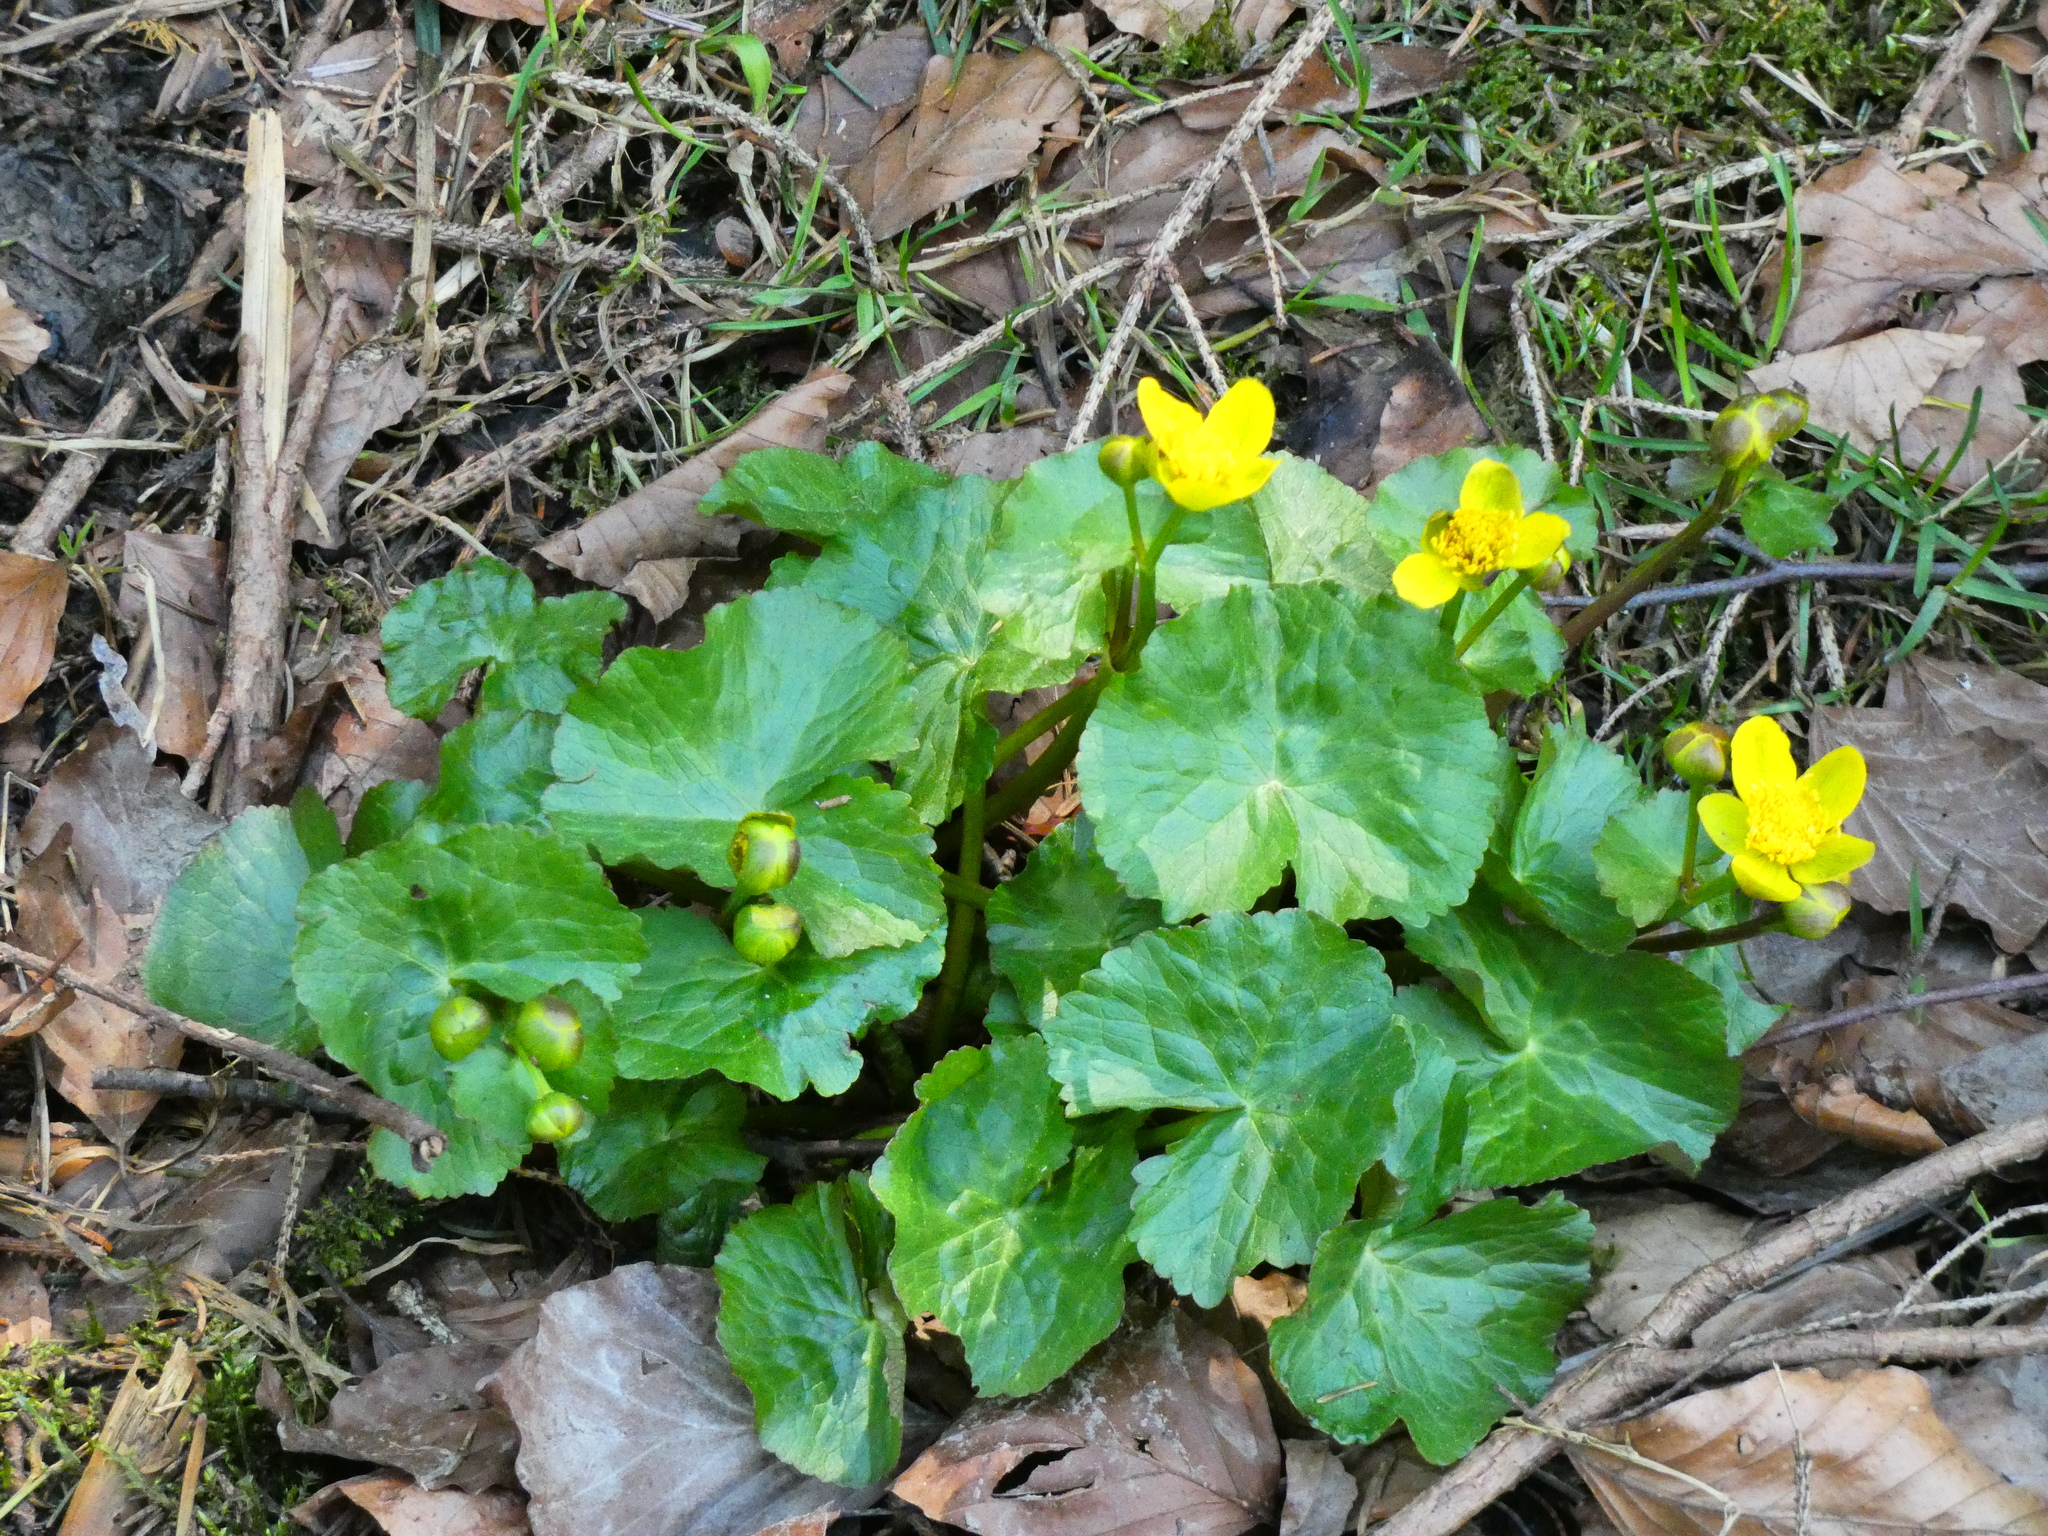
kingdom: Plantae
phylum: Tracheophyta
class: Magnoliopsida
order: Ranunculales
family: Ranunculaceae
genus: Caltha
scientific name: Caltha palustris
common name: Marsh marigold
